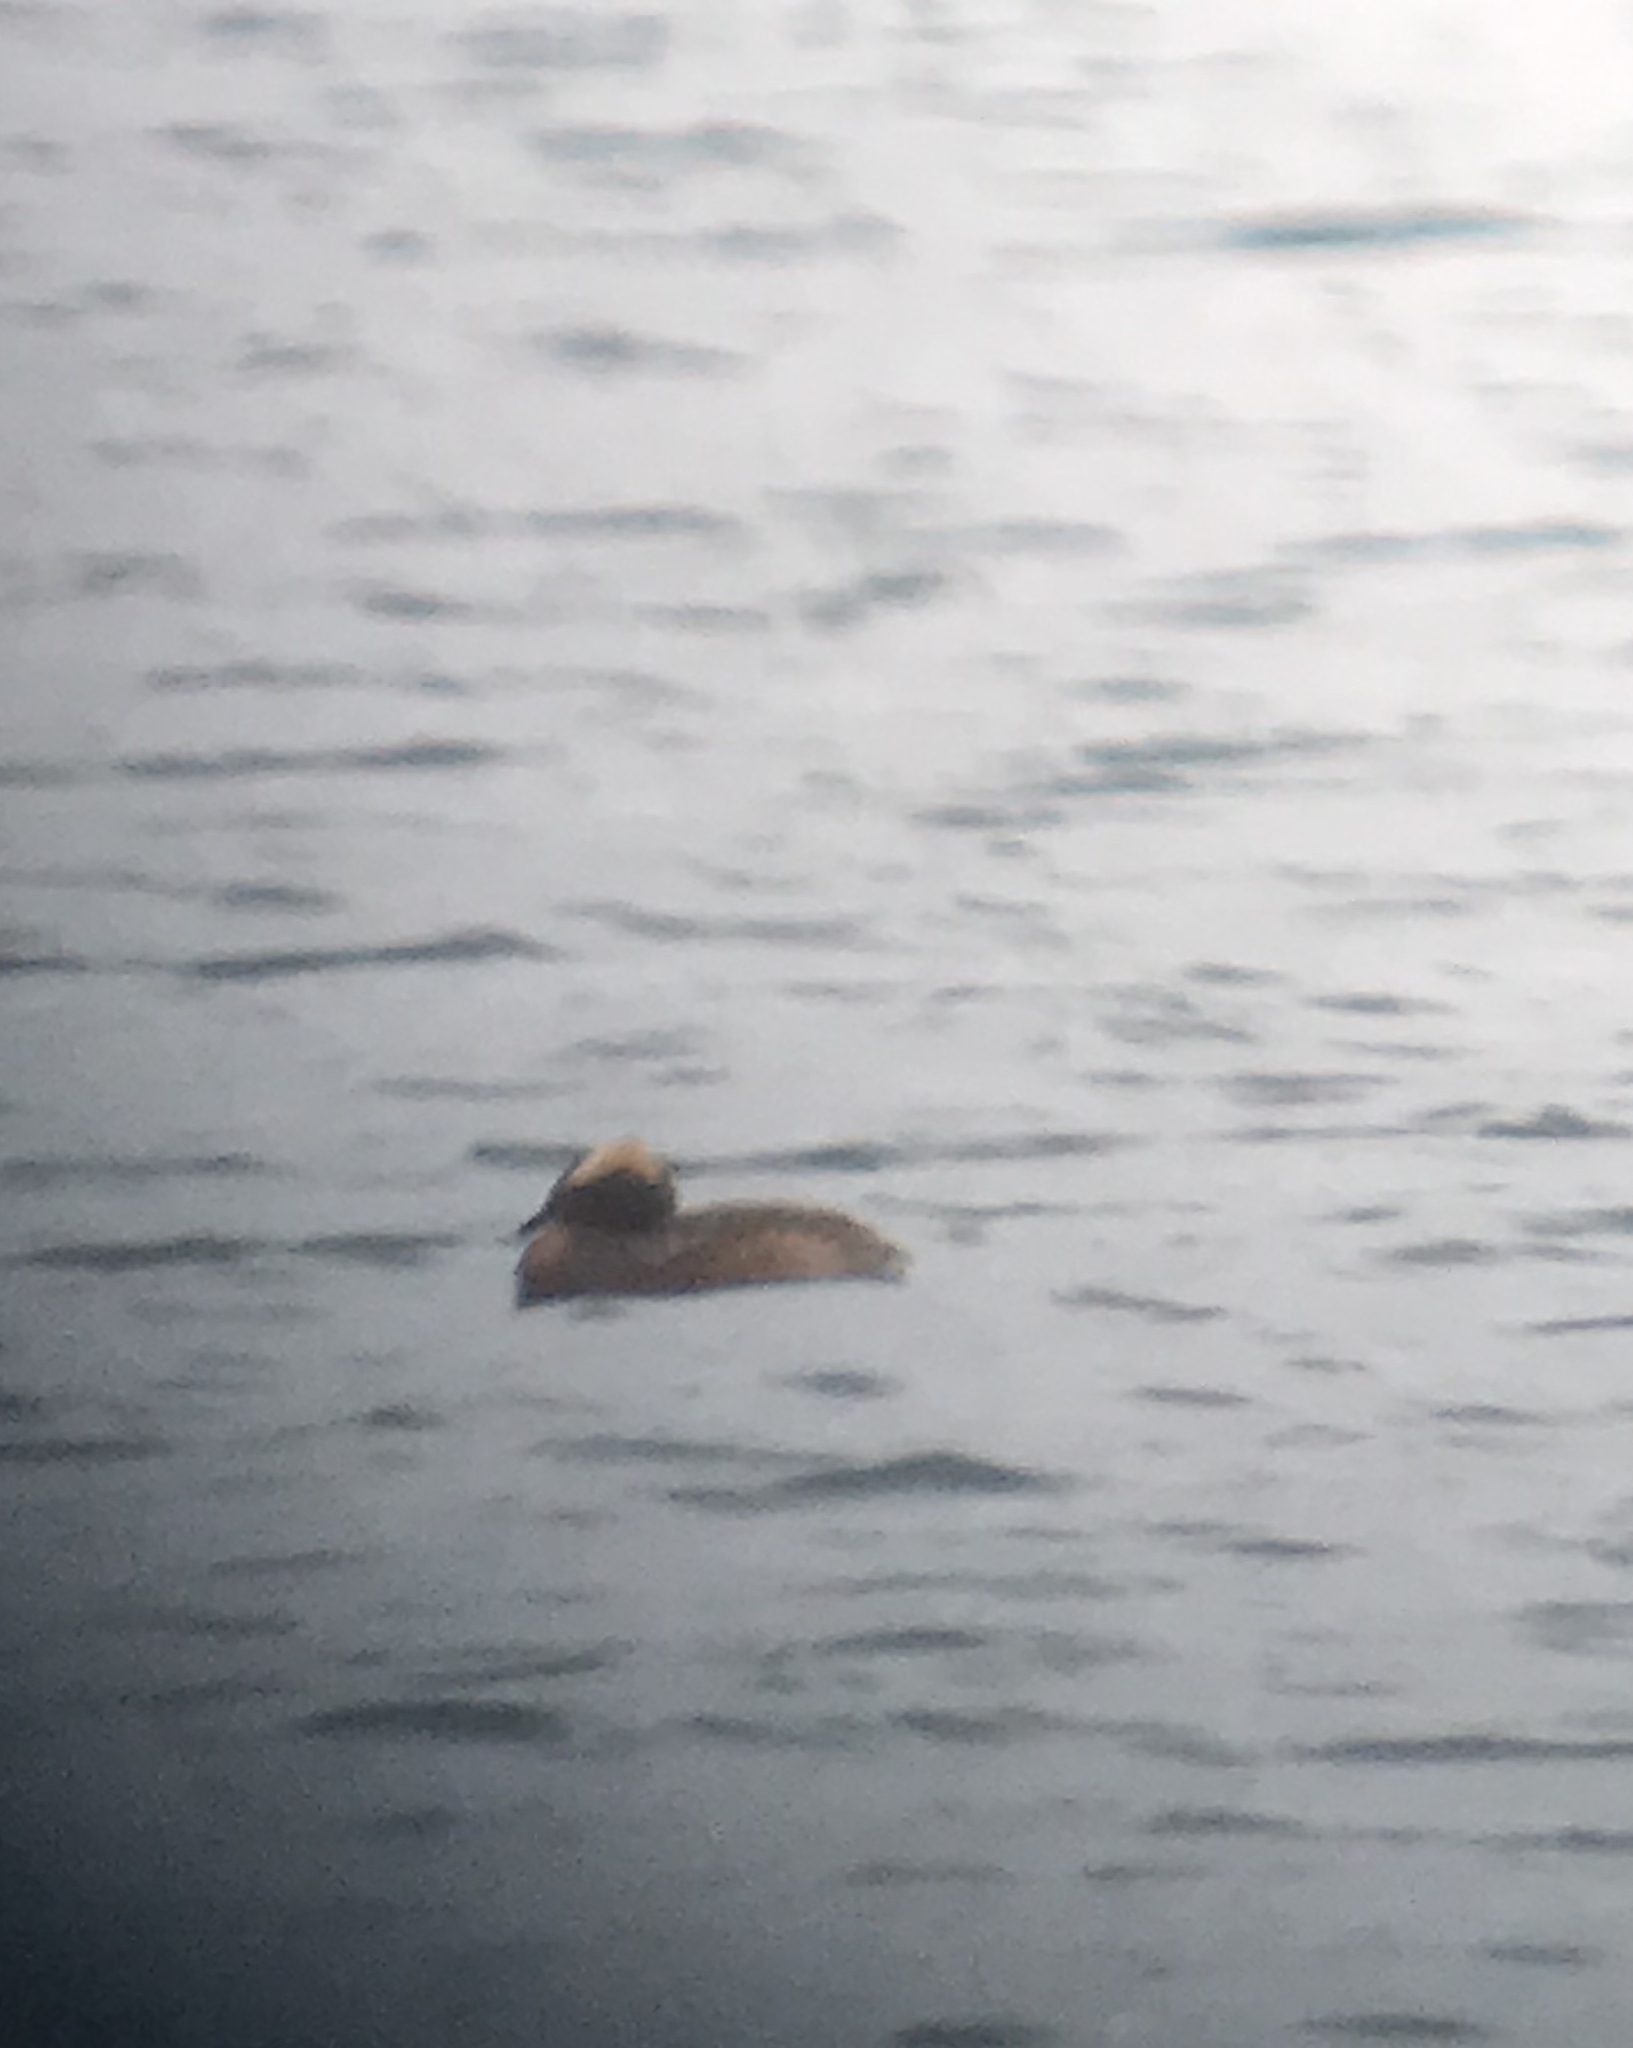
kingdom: Animalia
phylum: Chordata
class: Aves
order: Podicipediformes
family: Podicipedidae
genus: Podiceps
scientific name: Podiceps auritus
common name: Horned grebe
